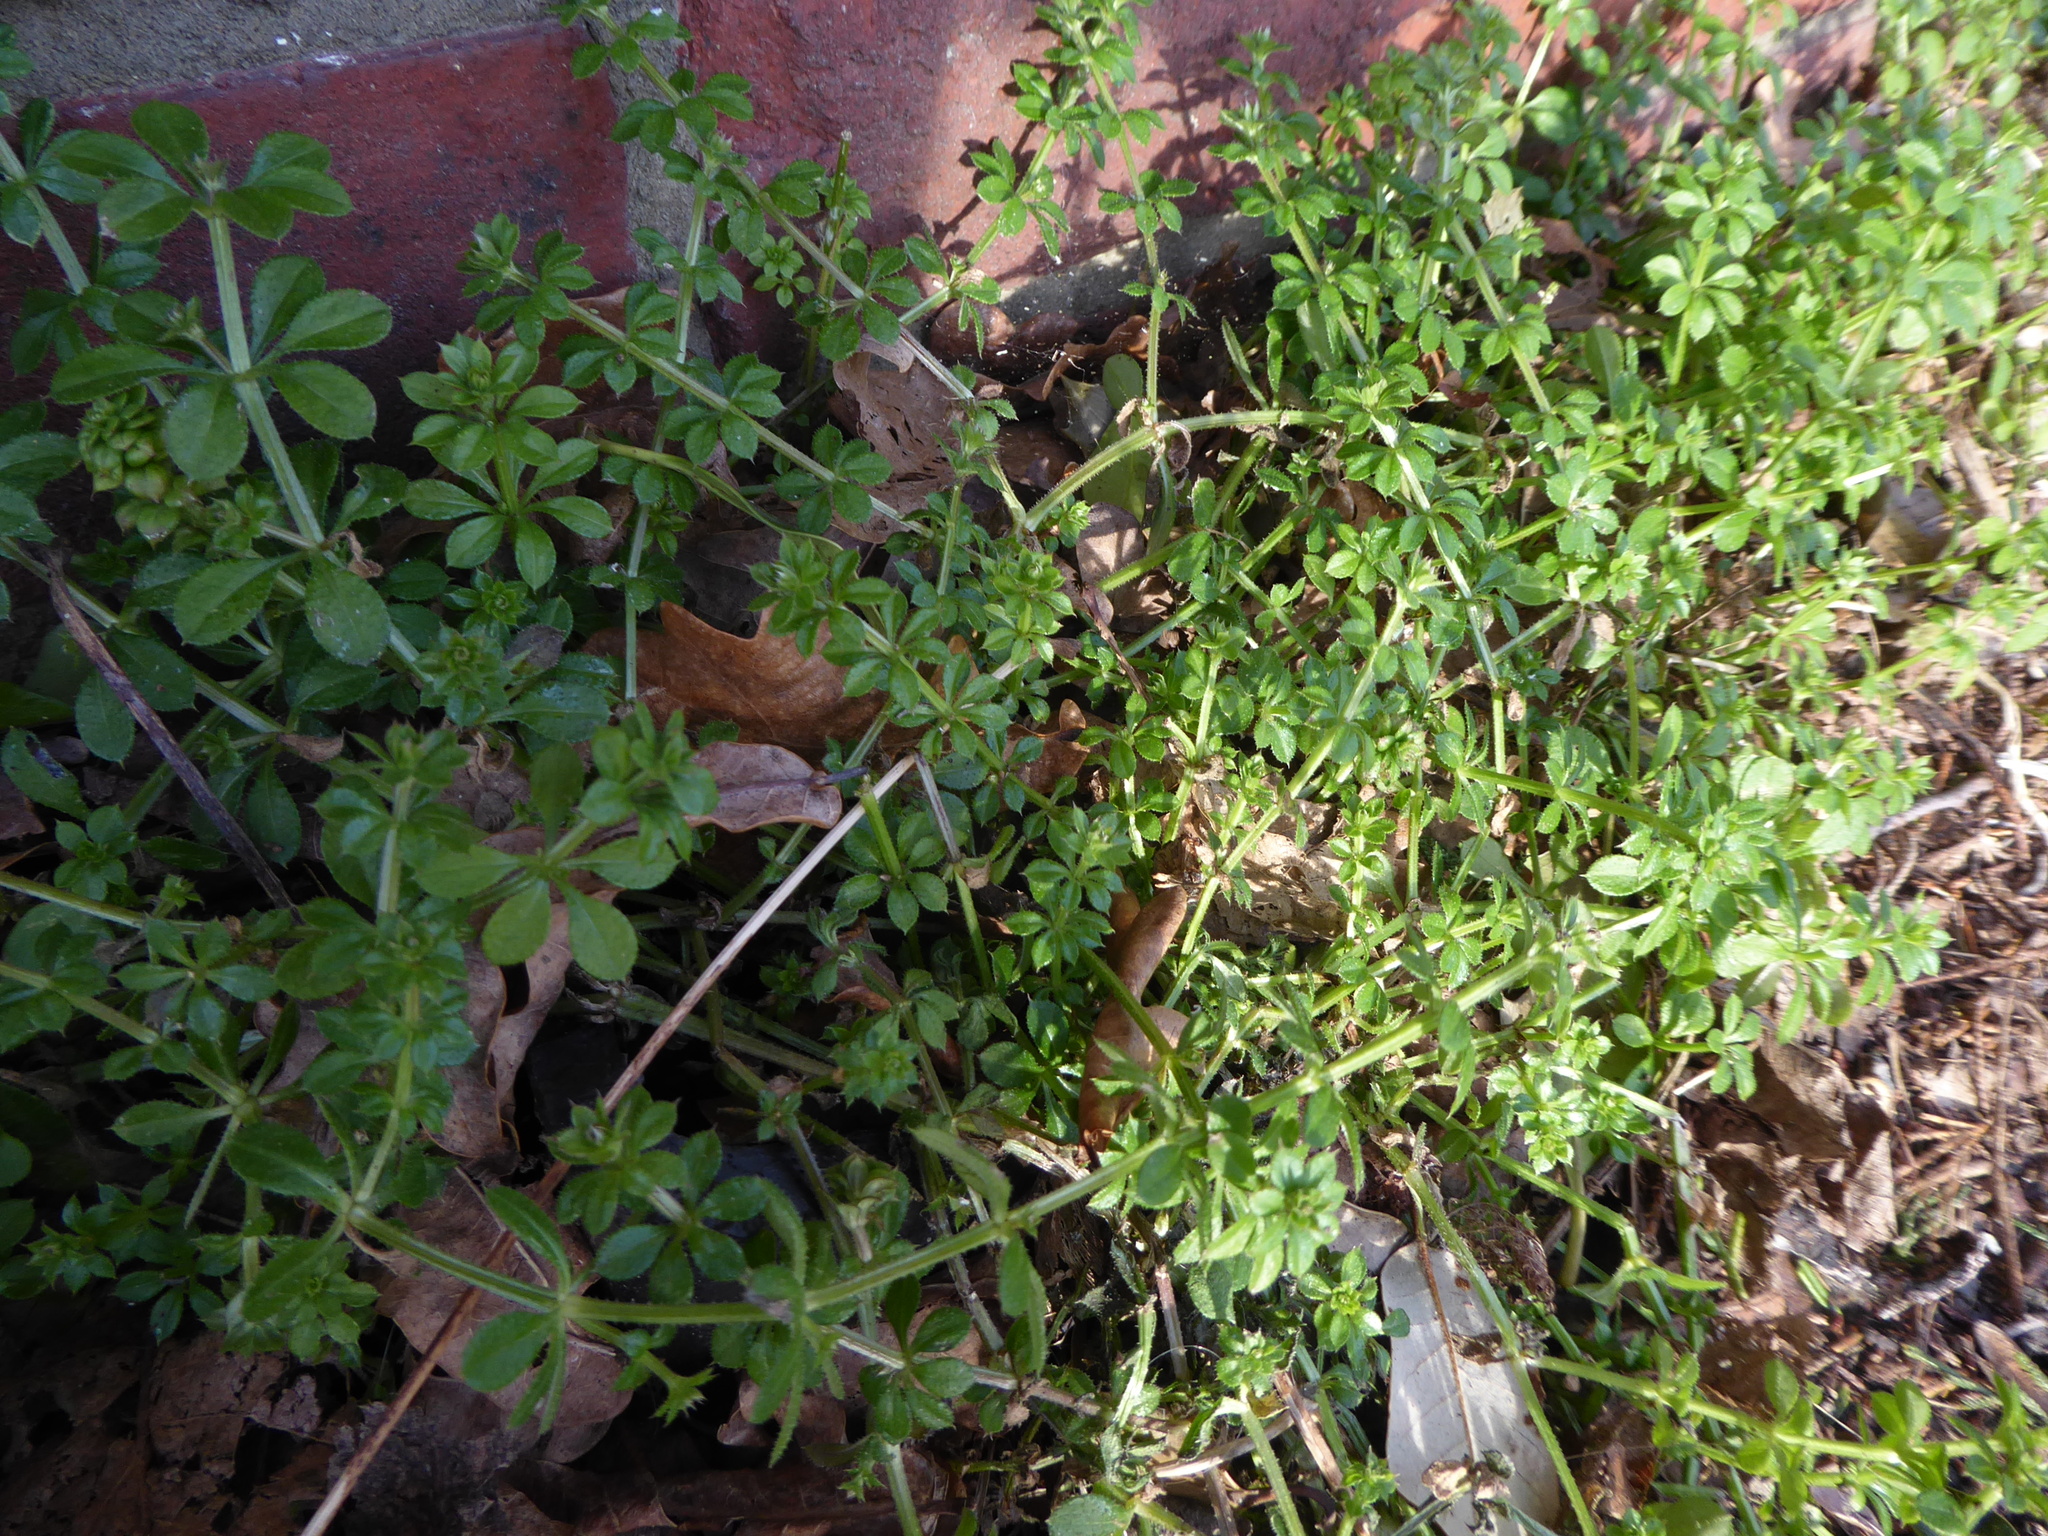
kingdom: Plantae
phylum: Tracheophyta
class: Magnoliopsida
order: Gentianales
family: Rubiaceae
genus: Galium
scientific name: Galium aparine
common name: Cleavers
